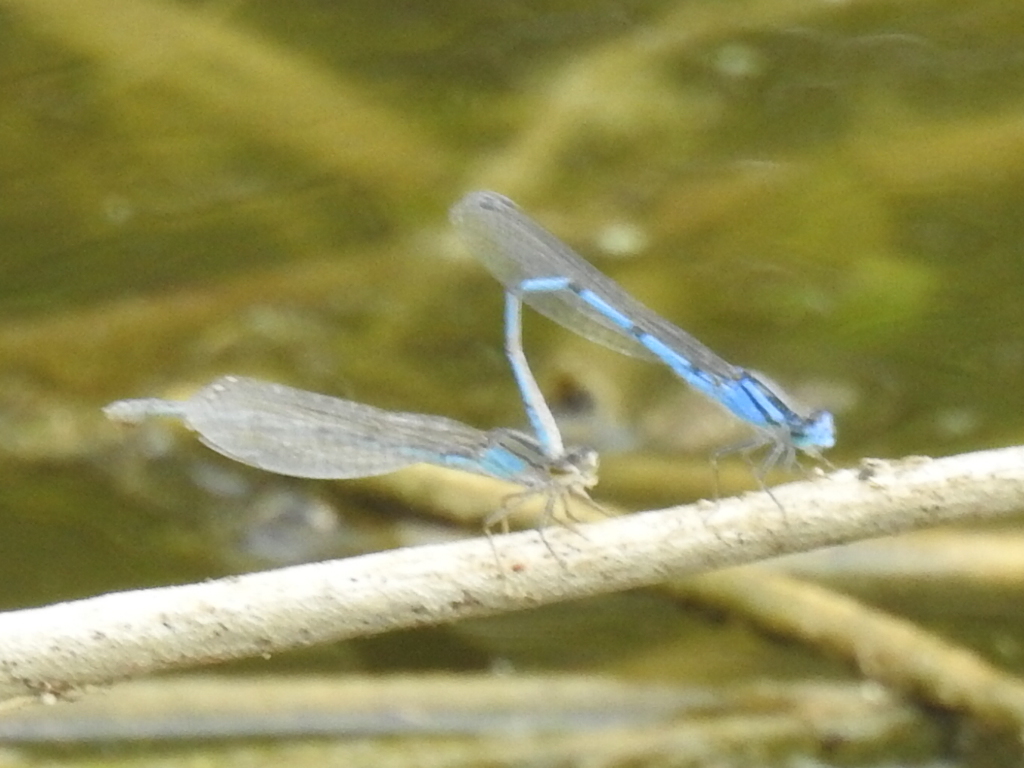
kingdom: Animalia
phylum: Arthropoda
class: Insecta
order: Odonata
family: Coenagrionidae
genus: Enallagma
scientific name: Enallagma civile
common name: Damselfly
